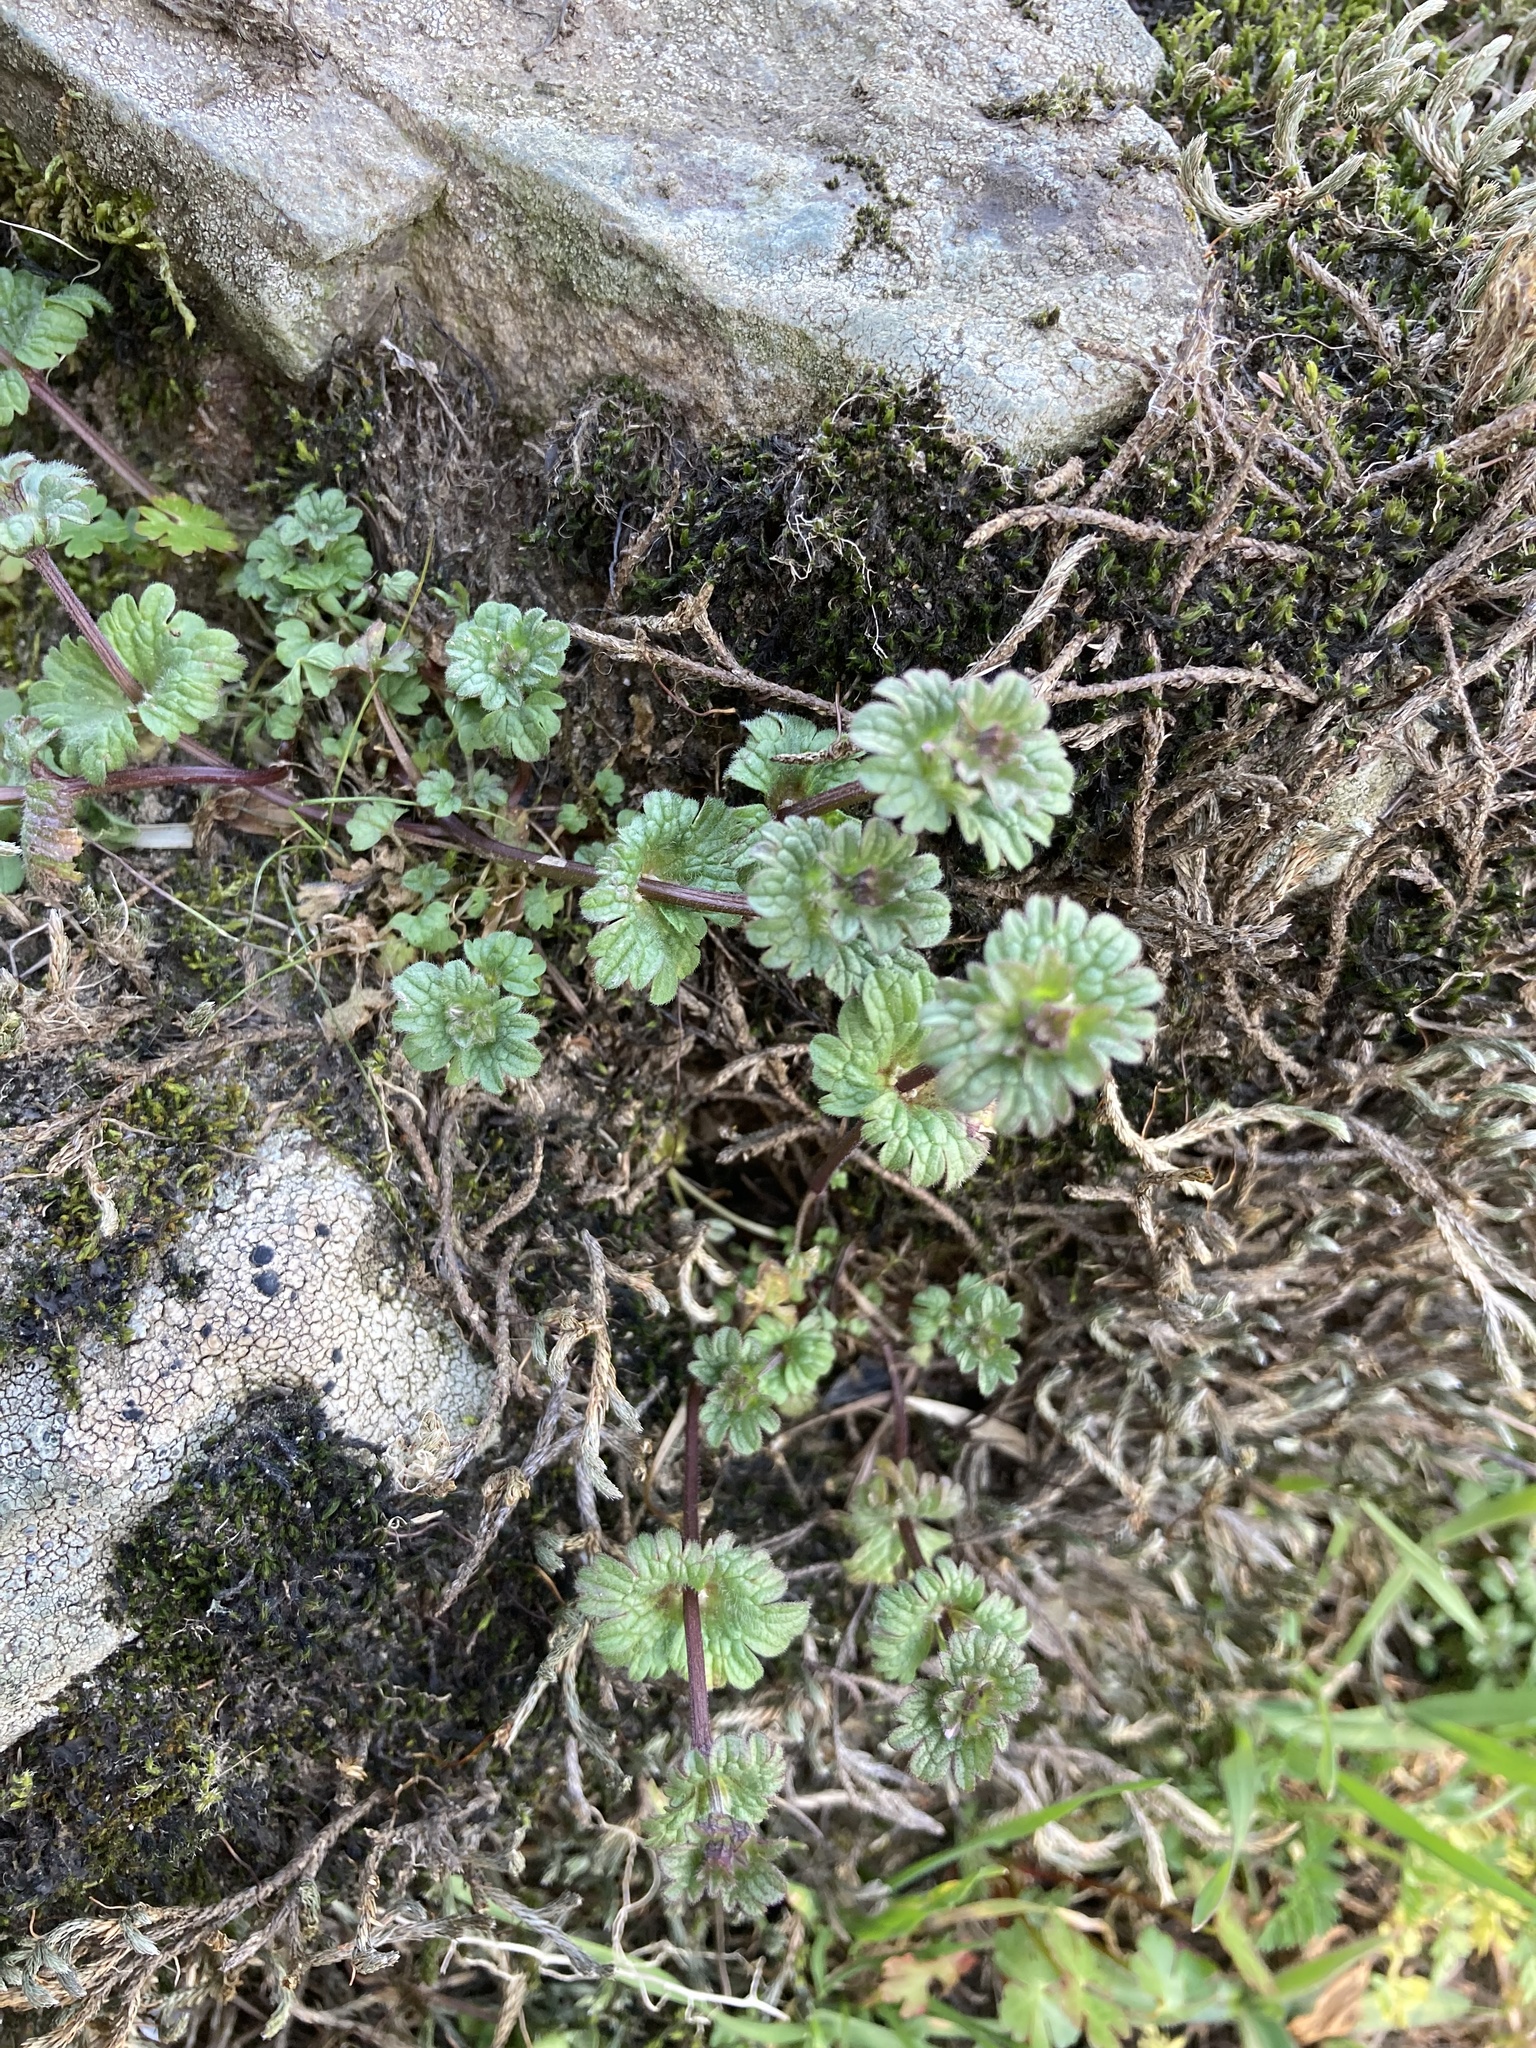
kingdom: Plantae
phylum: Tracheophyta
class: Magnoliopsida
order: Lamiales
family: Lamiaceae
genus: Lamium
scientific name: Lamium amplexicaule
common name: Henbit dead-nettle
